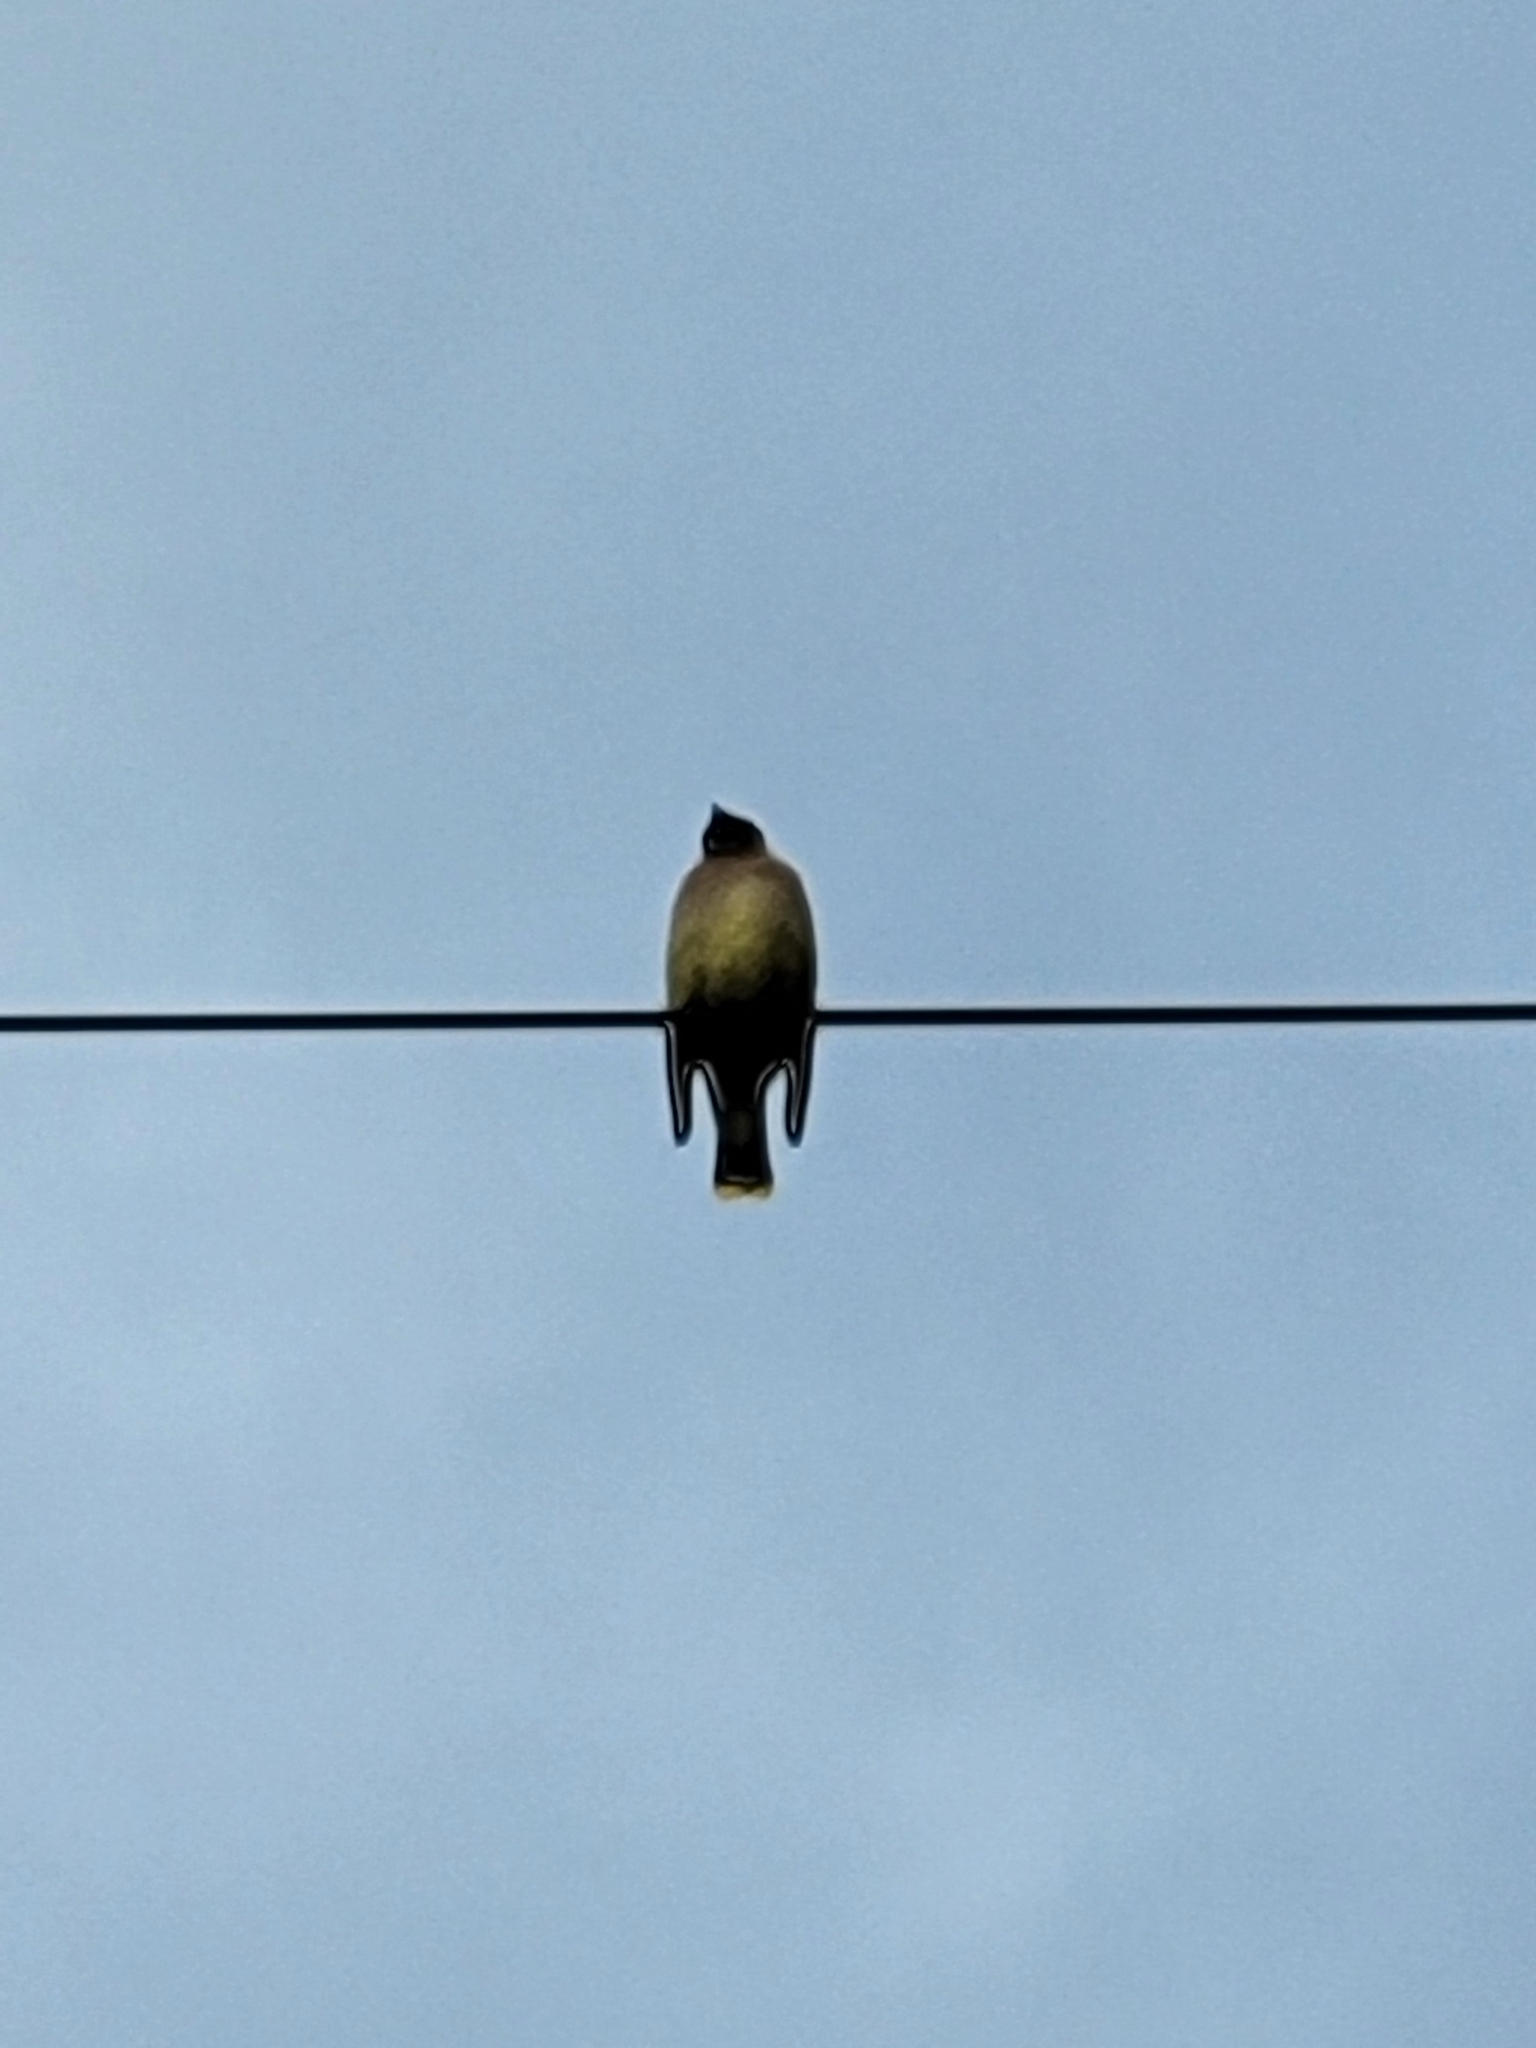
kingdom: Animalia
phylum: Chordata
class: Aves
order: Passeriformes
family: Bombycillidae
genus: Bombycilla
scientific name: Bombycilla cedrorum
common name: Cedar waxwing
